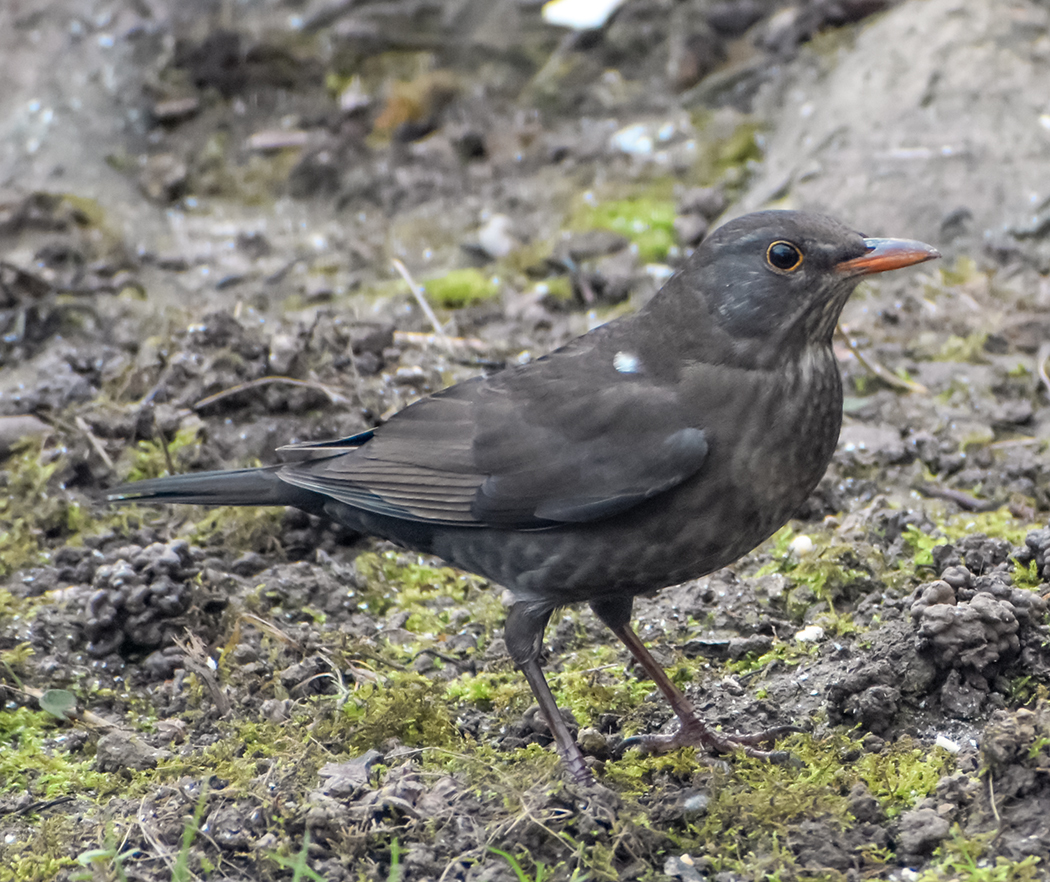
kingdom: Animalia
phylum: Chordata
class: Aves
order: Passeriformes
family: Turdidae
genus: Turdus
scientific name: Turdus merula
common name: Common blackbird
